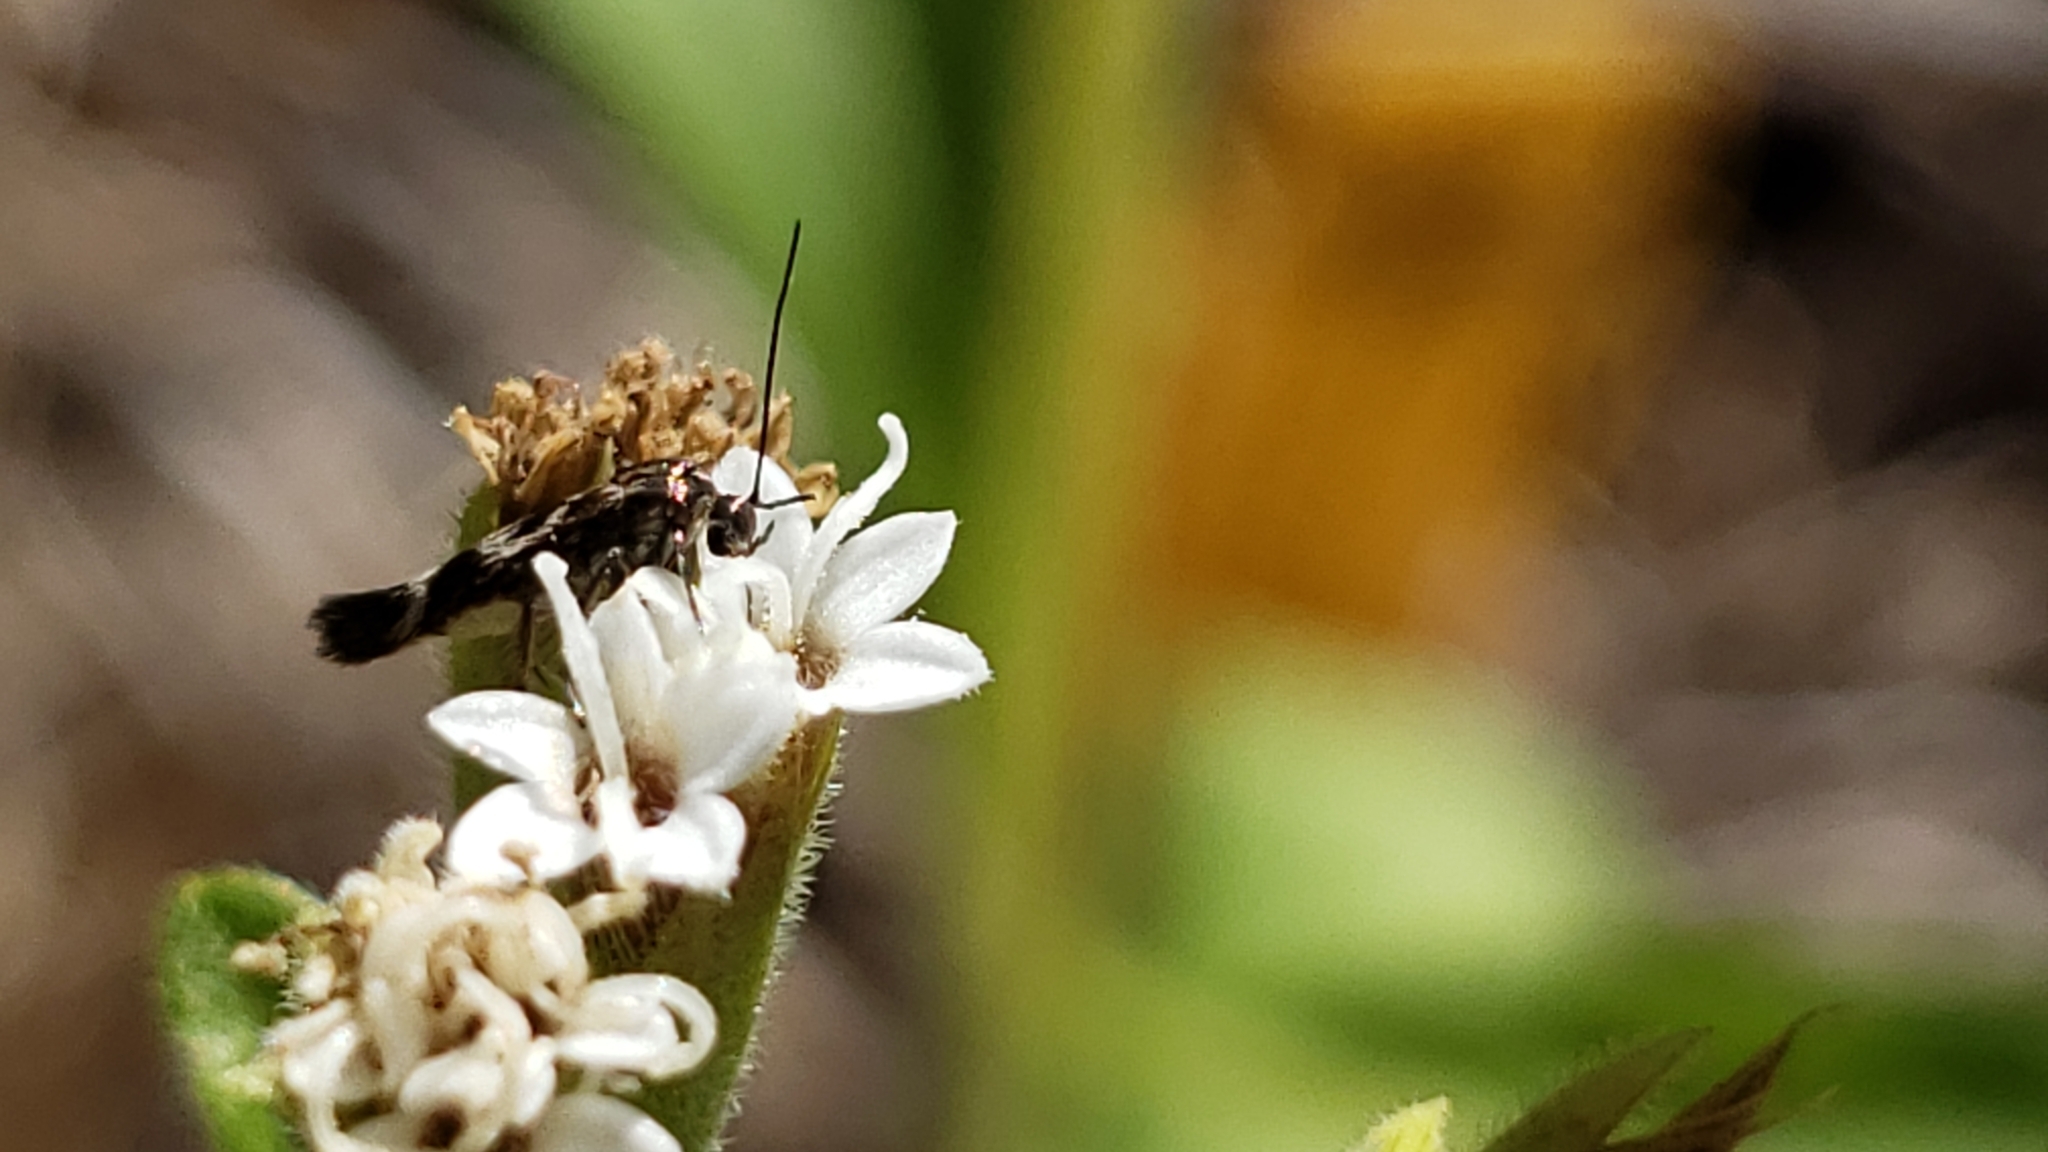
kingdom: Animalia
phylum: Arthropoda
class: Insecta
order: Lepidoptera
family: Scythrididae
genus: Scythris
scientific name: Scythris trivinctella
